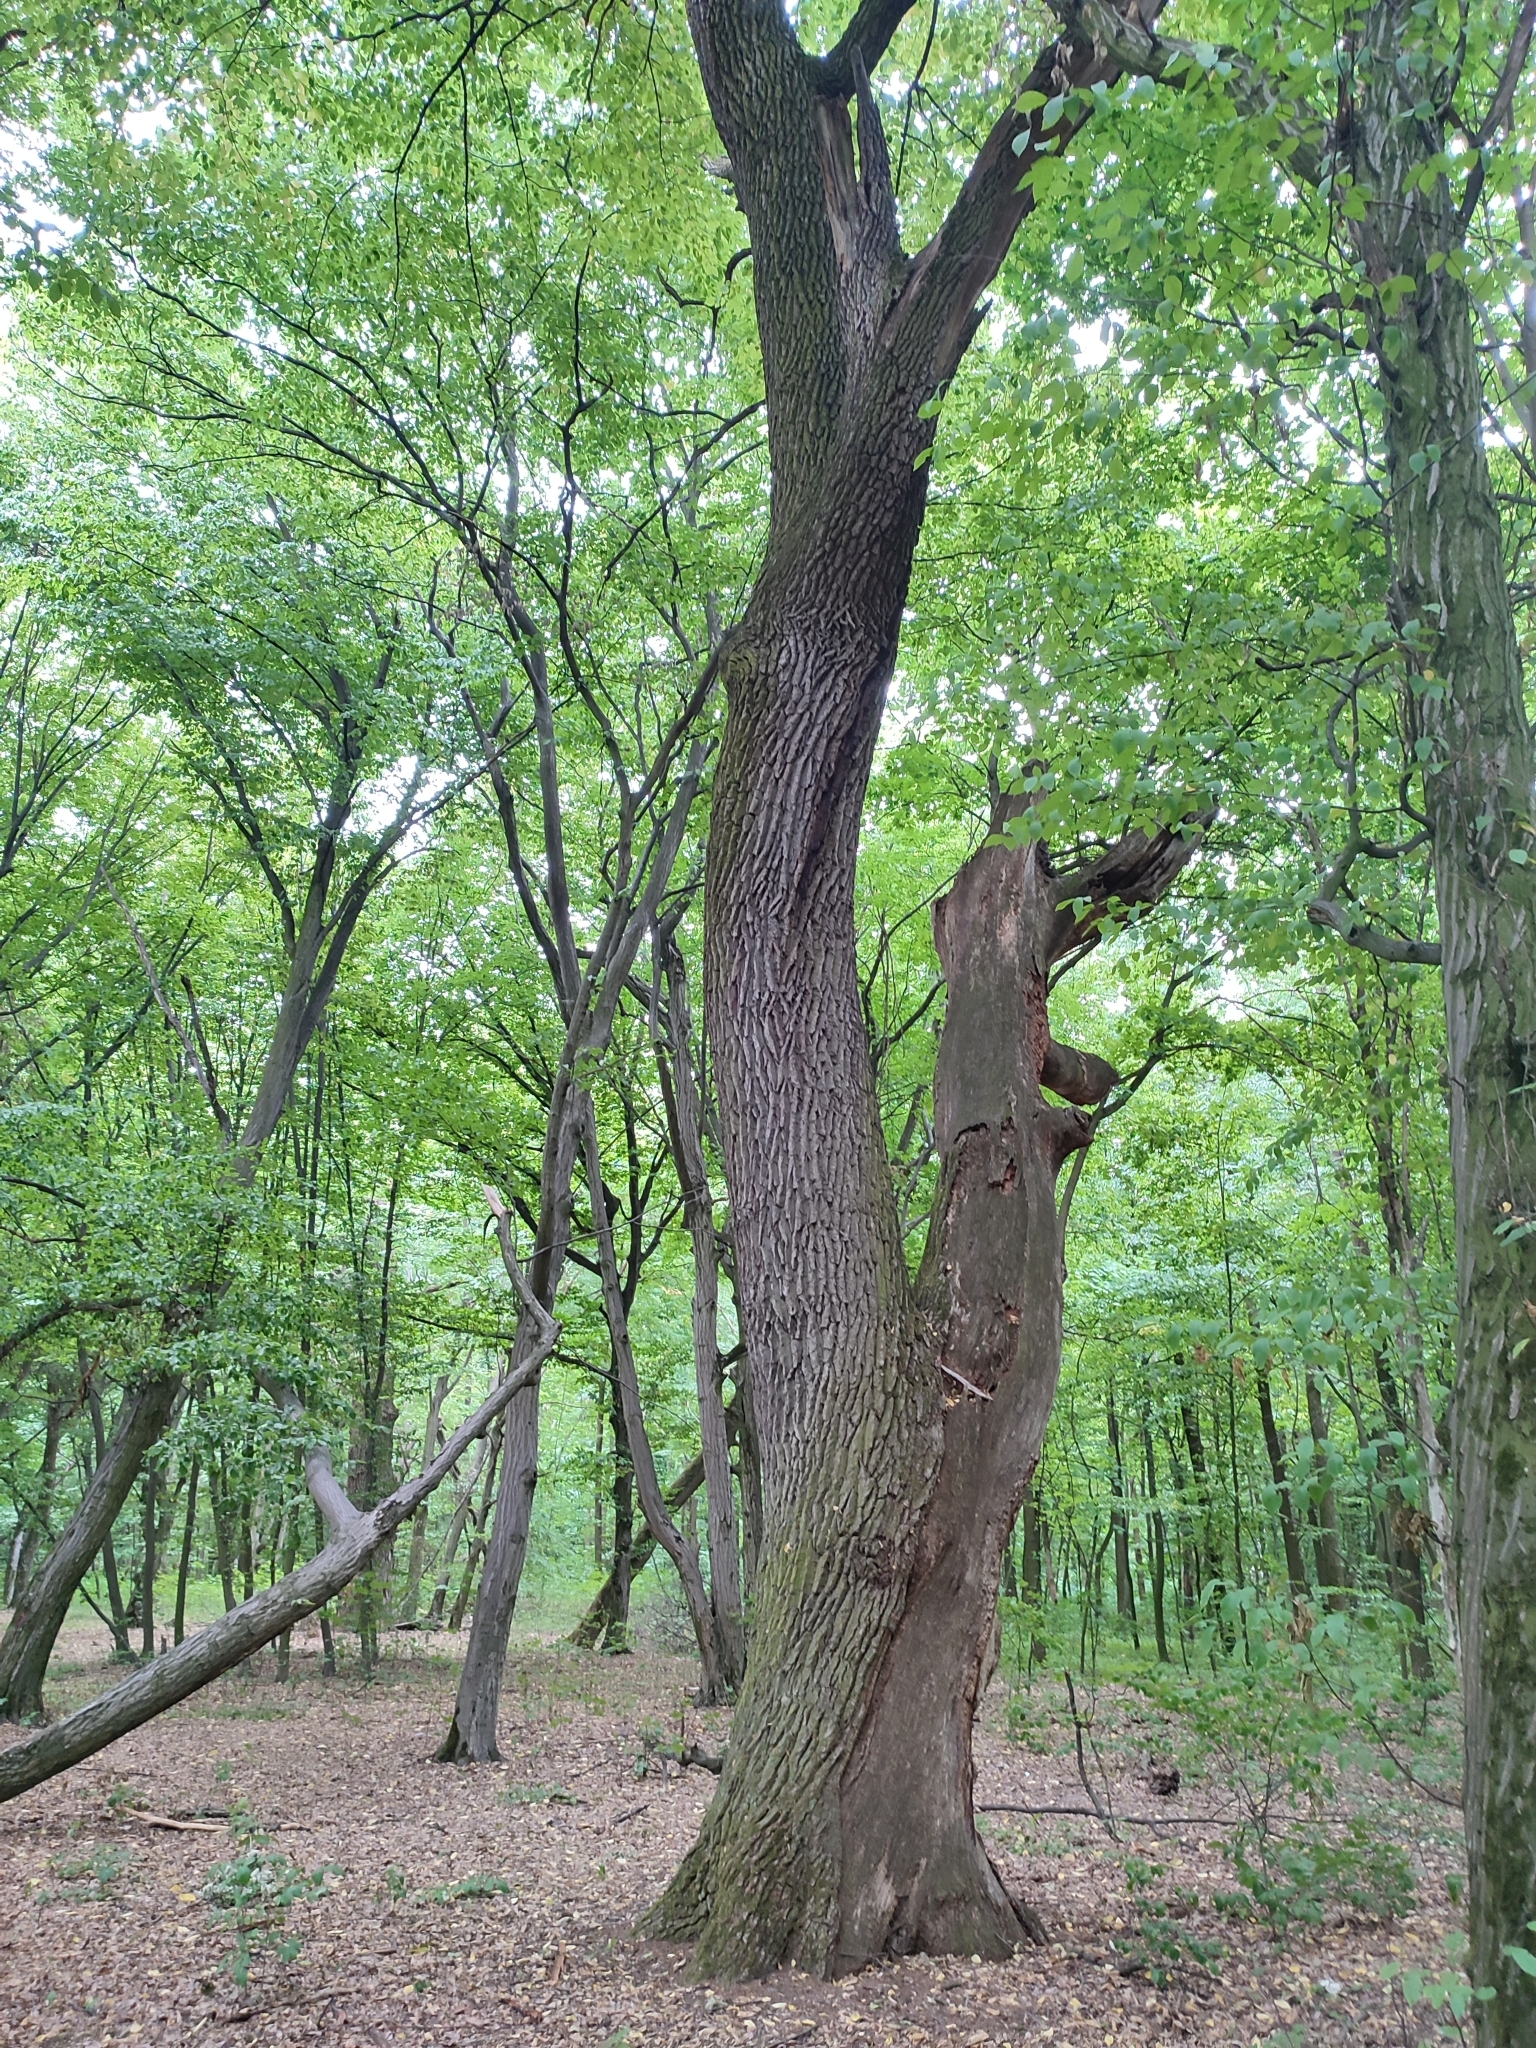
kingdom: Plantae
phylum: Tracheophyta
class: Magnoliopsida
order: Fagales
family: Fagaceae
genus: Quercus
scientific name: Quercus robur
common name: Pedunculate oak
